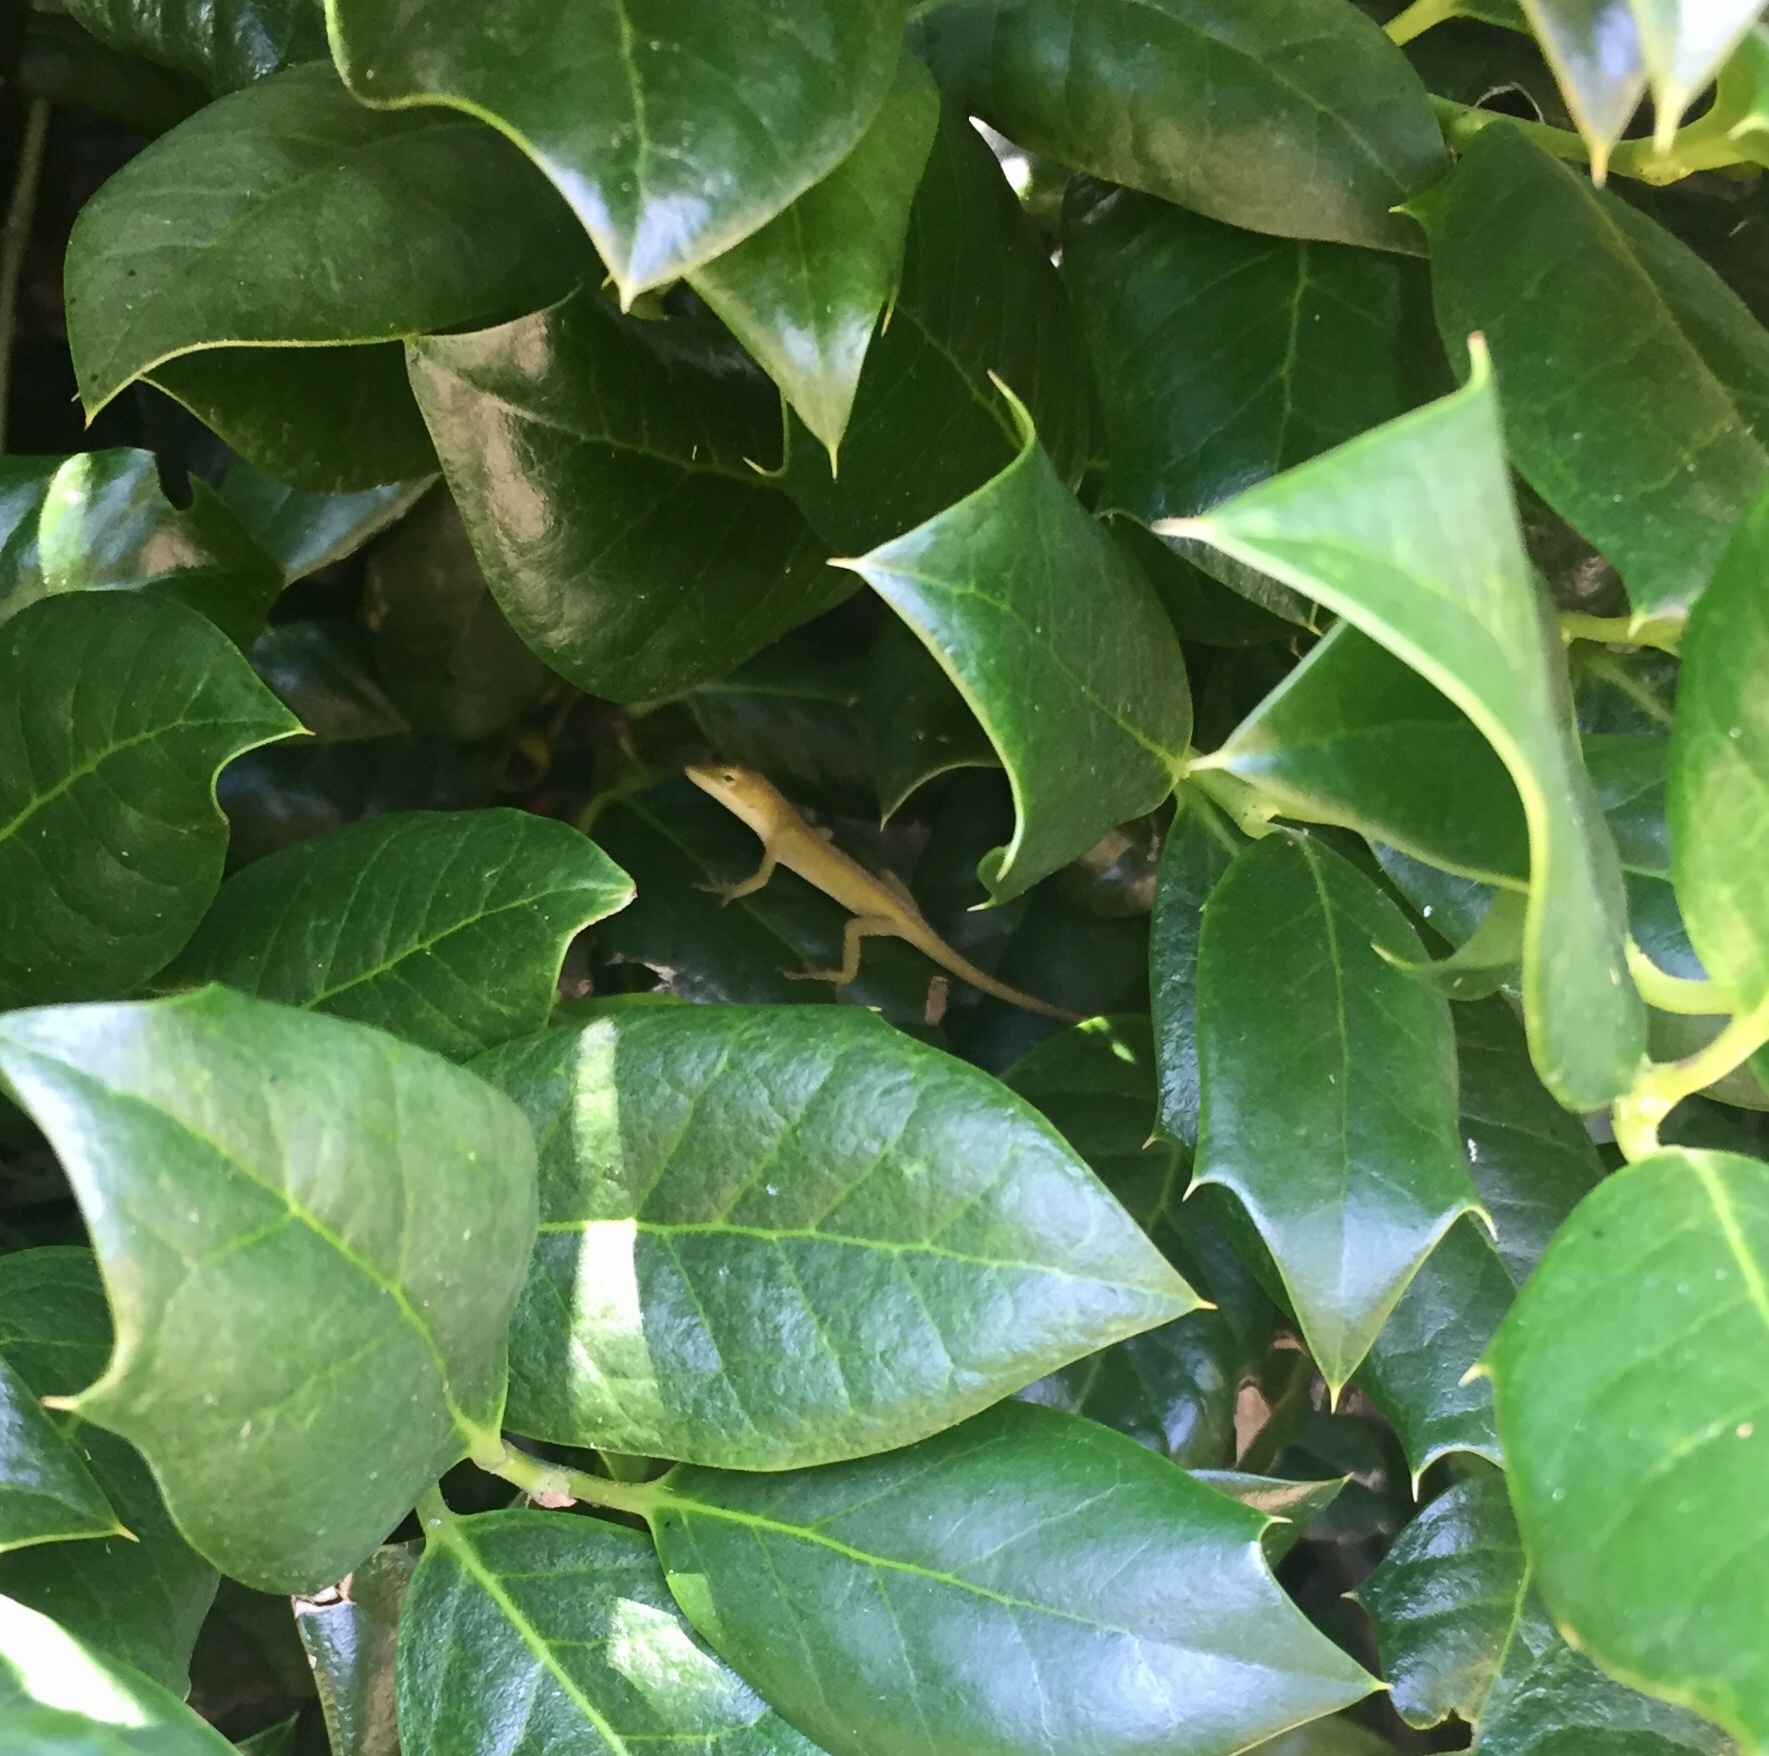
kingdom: Animalia
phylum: Chordata
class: Squamata
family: Dactyloidae
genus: Anolis
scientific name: Anolis carolinensis
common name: Green anole
